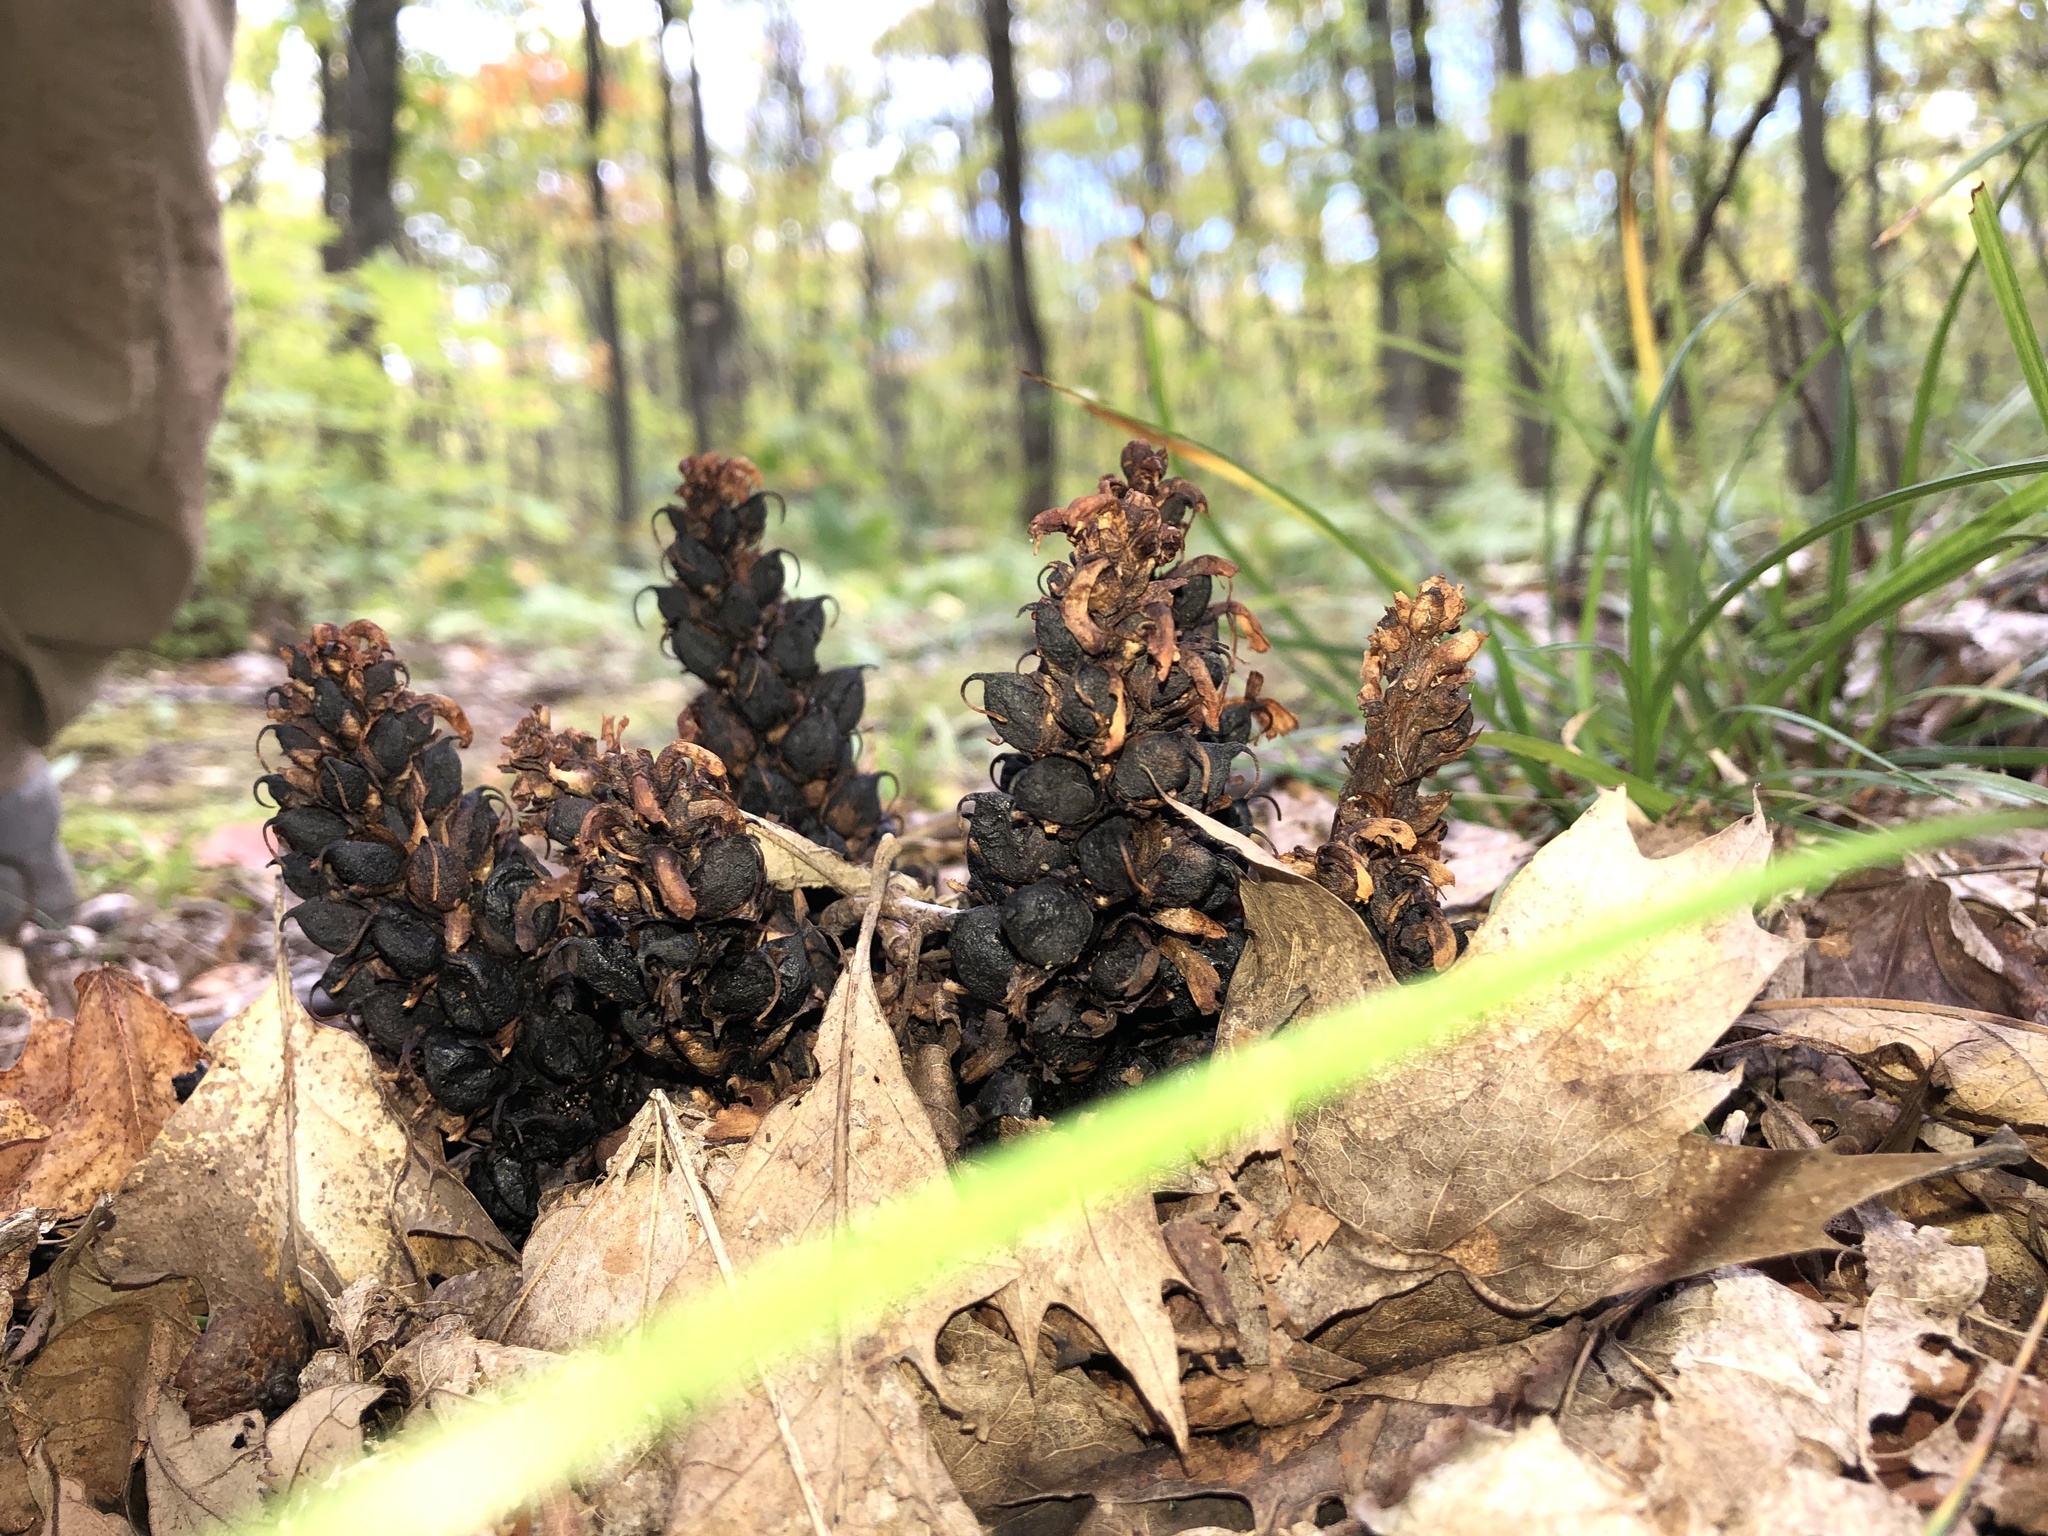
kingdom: Plantae
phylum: Tracheophyta
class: Magnoliopsida
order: Lamiales
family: Orobanchaceae
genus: Conopholis
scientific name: Conopholis americana
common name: American cancer-root
